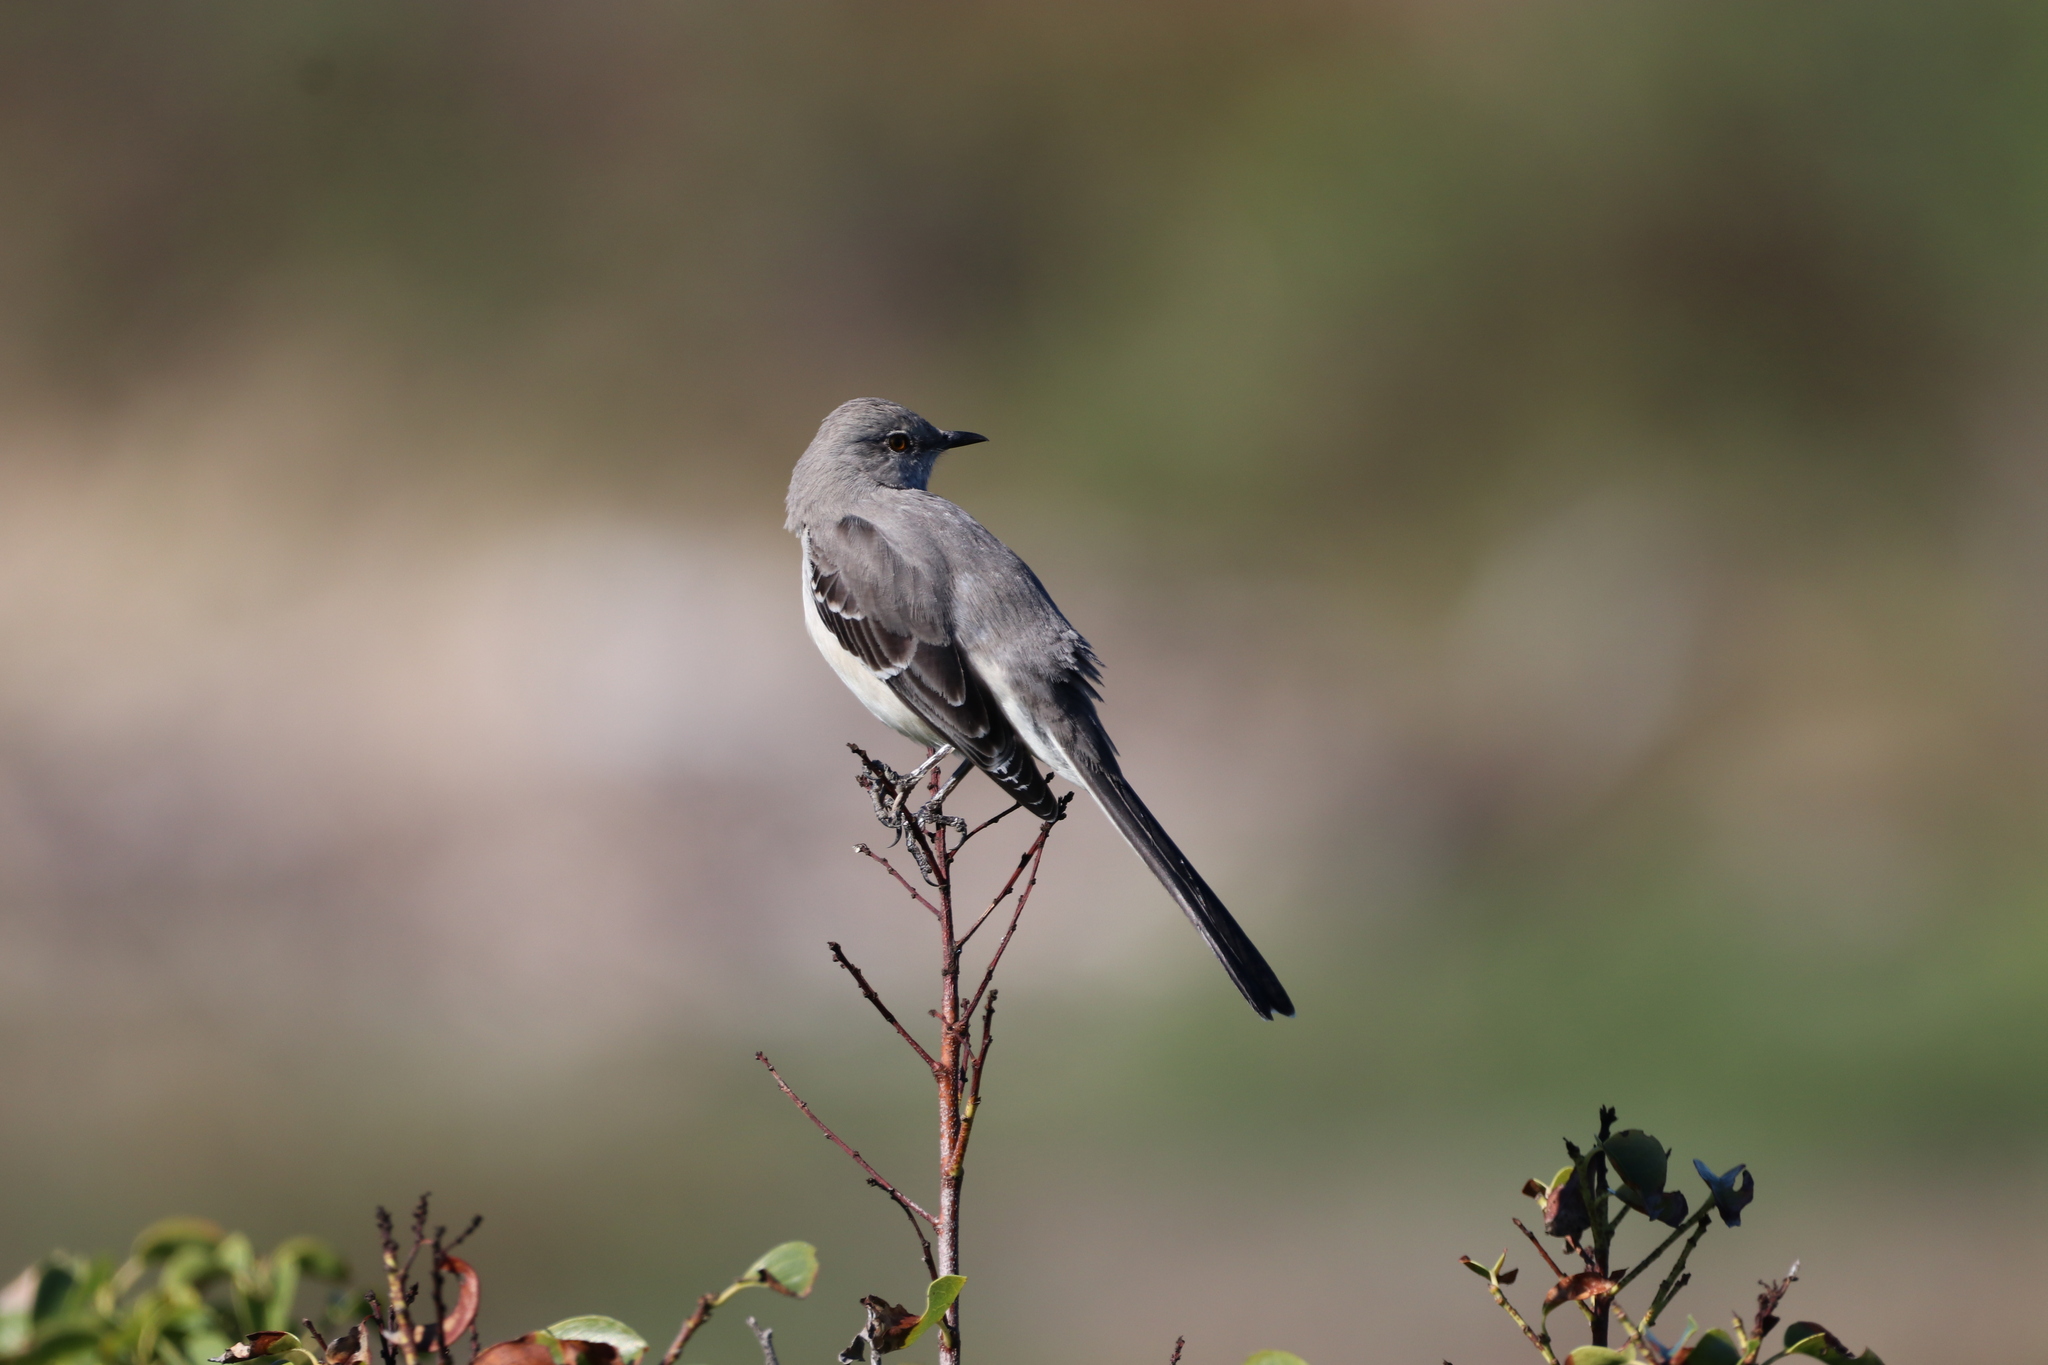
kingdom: Animalia
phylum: Chordata
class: Aves
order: Passeriformes
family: Mimidae
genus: Mimus
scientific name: Mimus polyglottos
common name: Northern mockingbird
